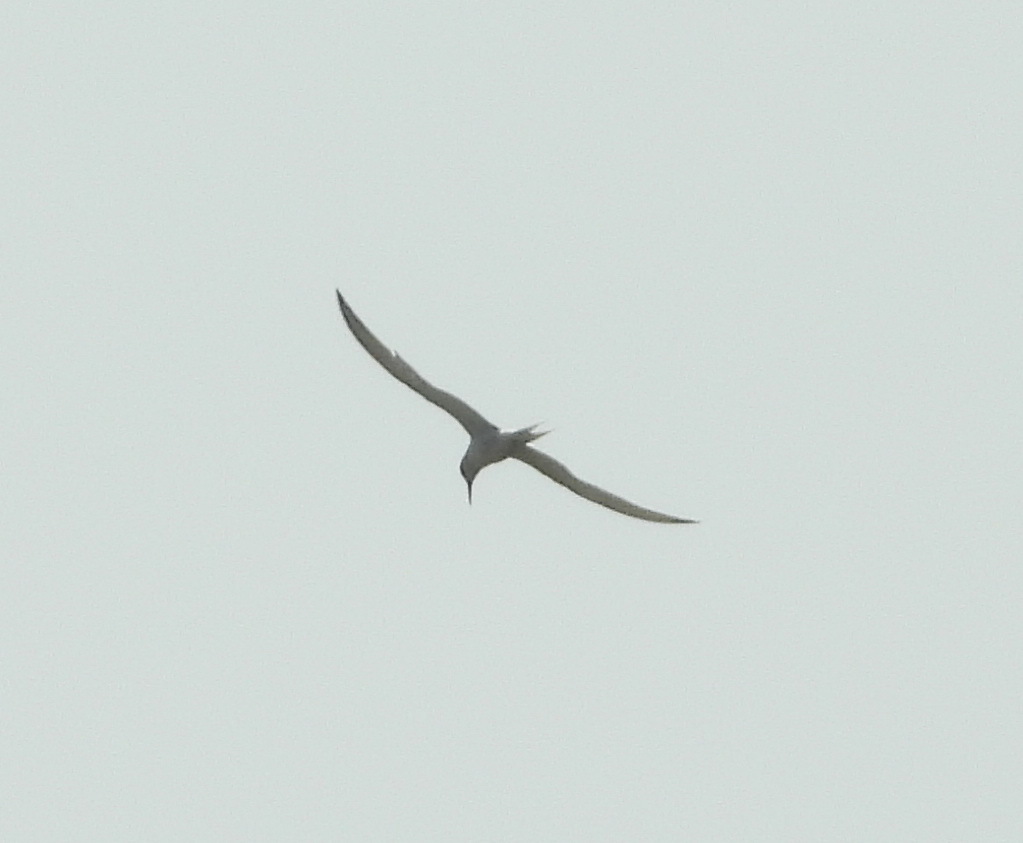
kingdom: Animalia
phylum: Chordata
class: Aves
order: Charadriiformes
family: Laridae
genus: Sterna
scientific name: Sterna hirundo
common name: Common tern
